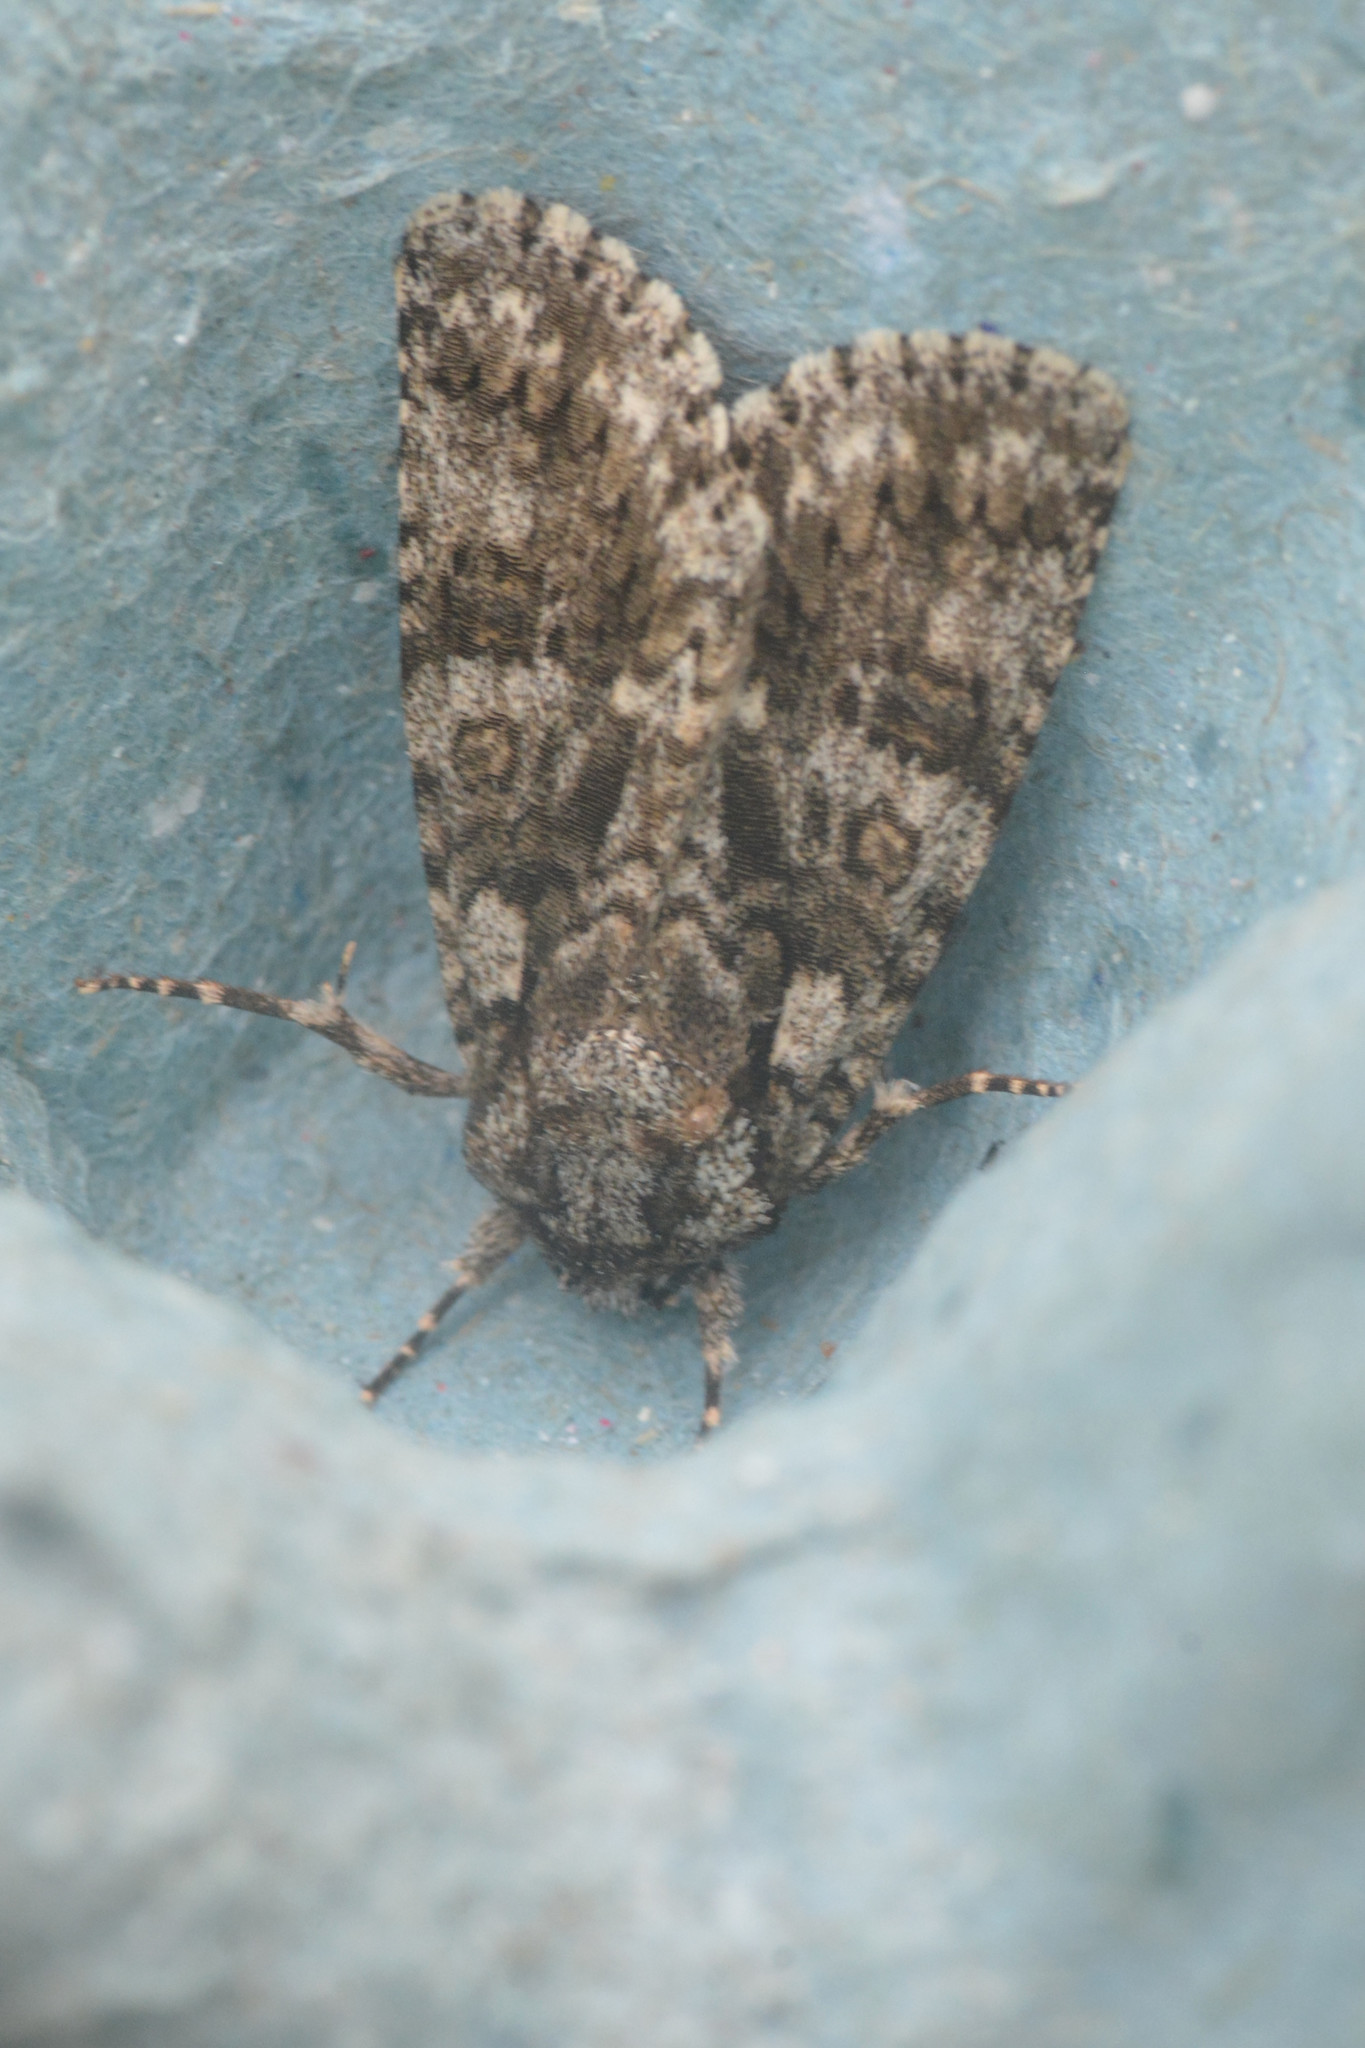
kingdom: Animalia
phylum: Arthropoda
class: Insecta
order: Lepidoptera
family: Noctuidae
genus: Acronicta
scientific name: Acronicta rumicis
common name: Knot grass
